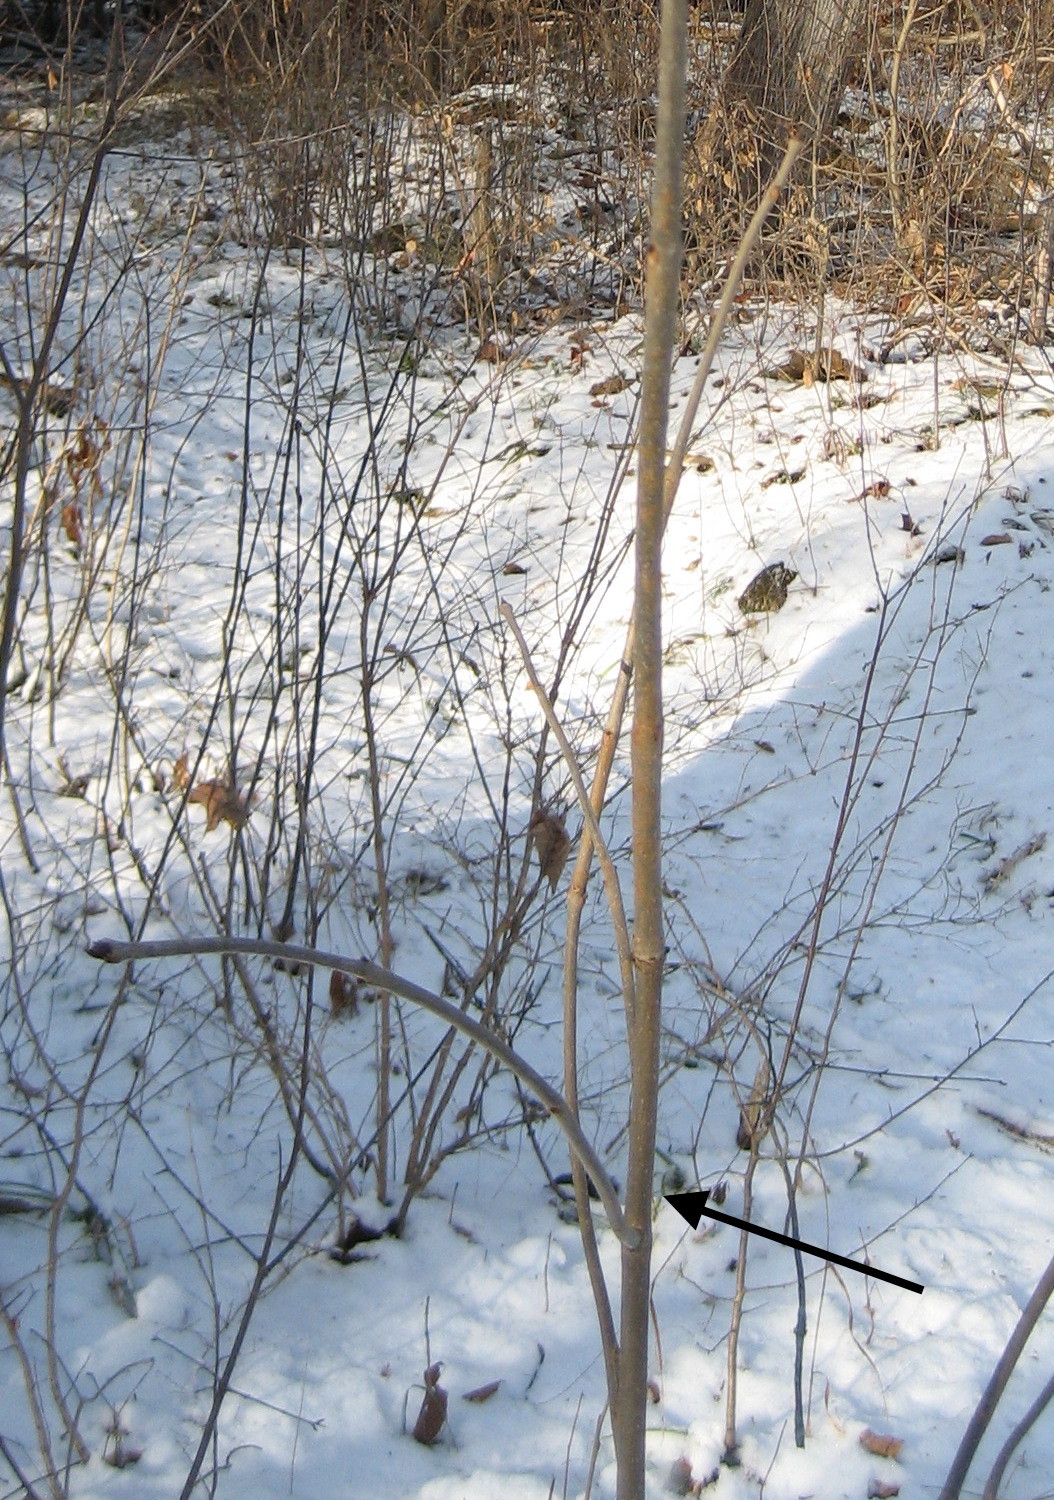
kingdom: Plantae
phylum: Tracheophyta
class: Magnoliopsida
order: Lamiales
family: Oleaceae
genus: Fraxinus
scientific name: Fraxinus pennsylvanica
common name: Green ash
